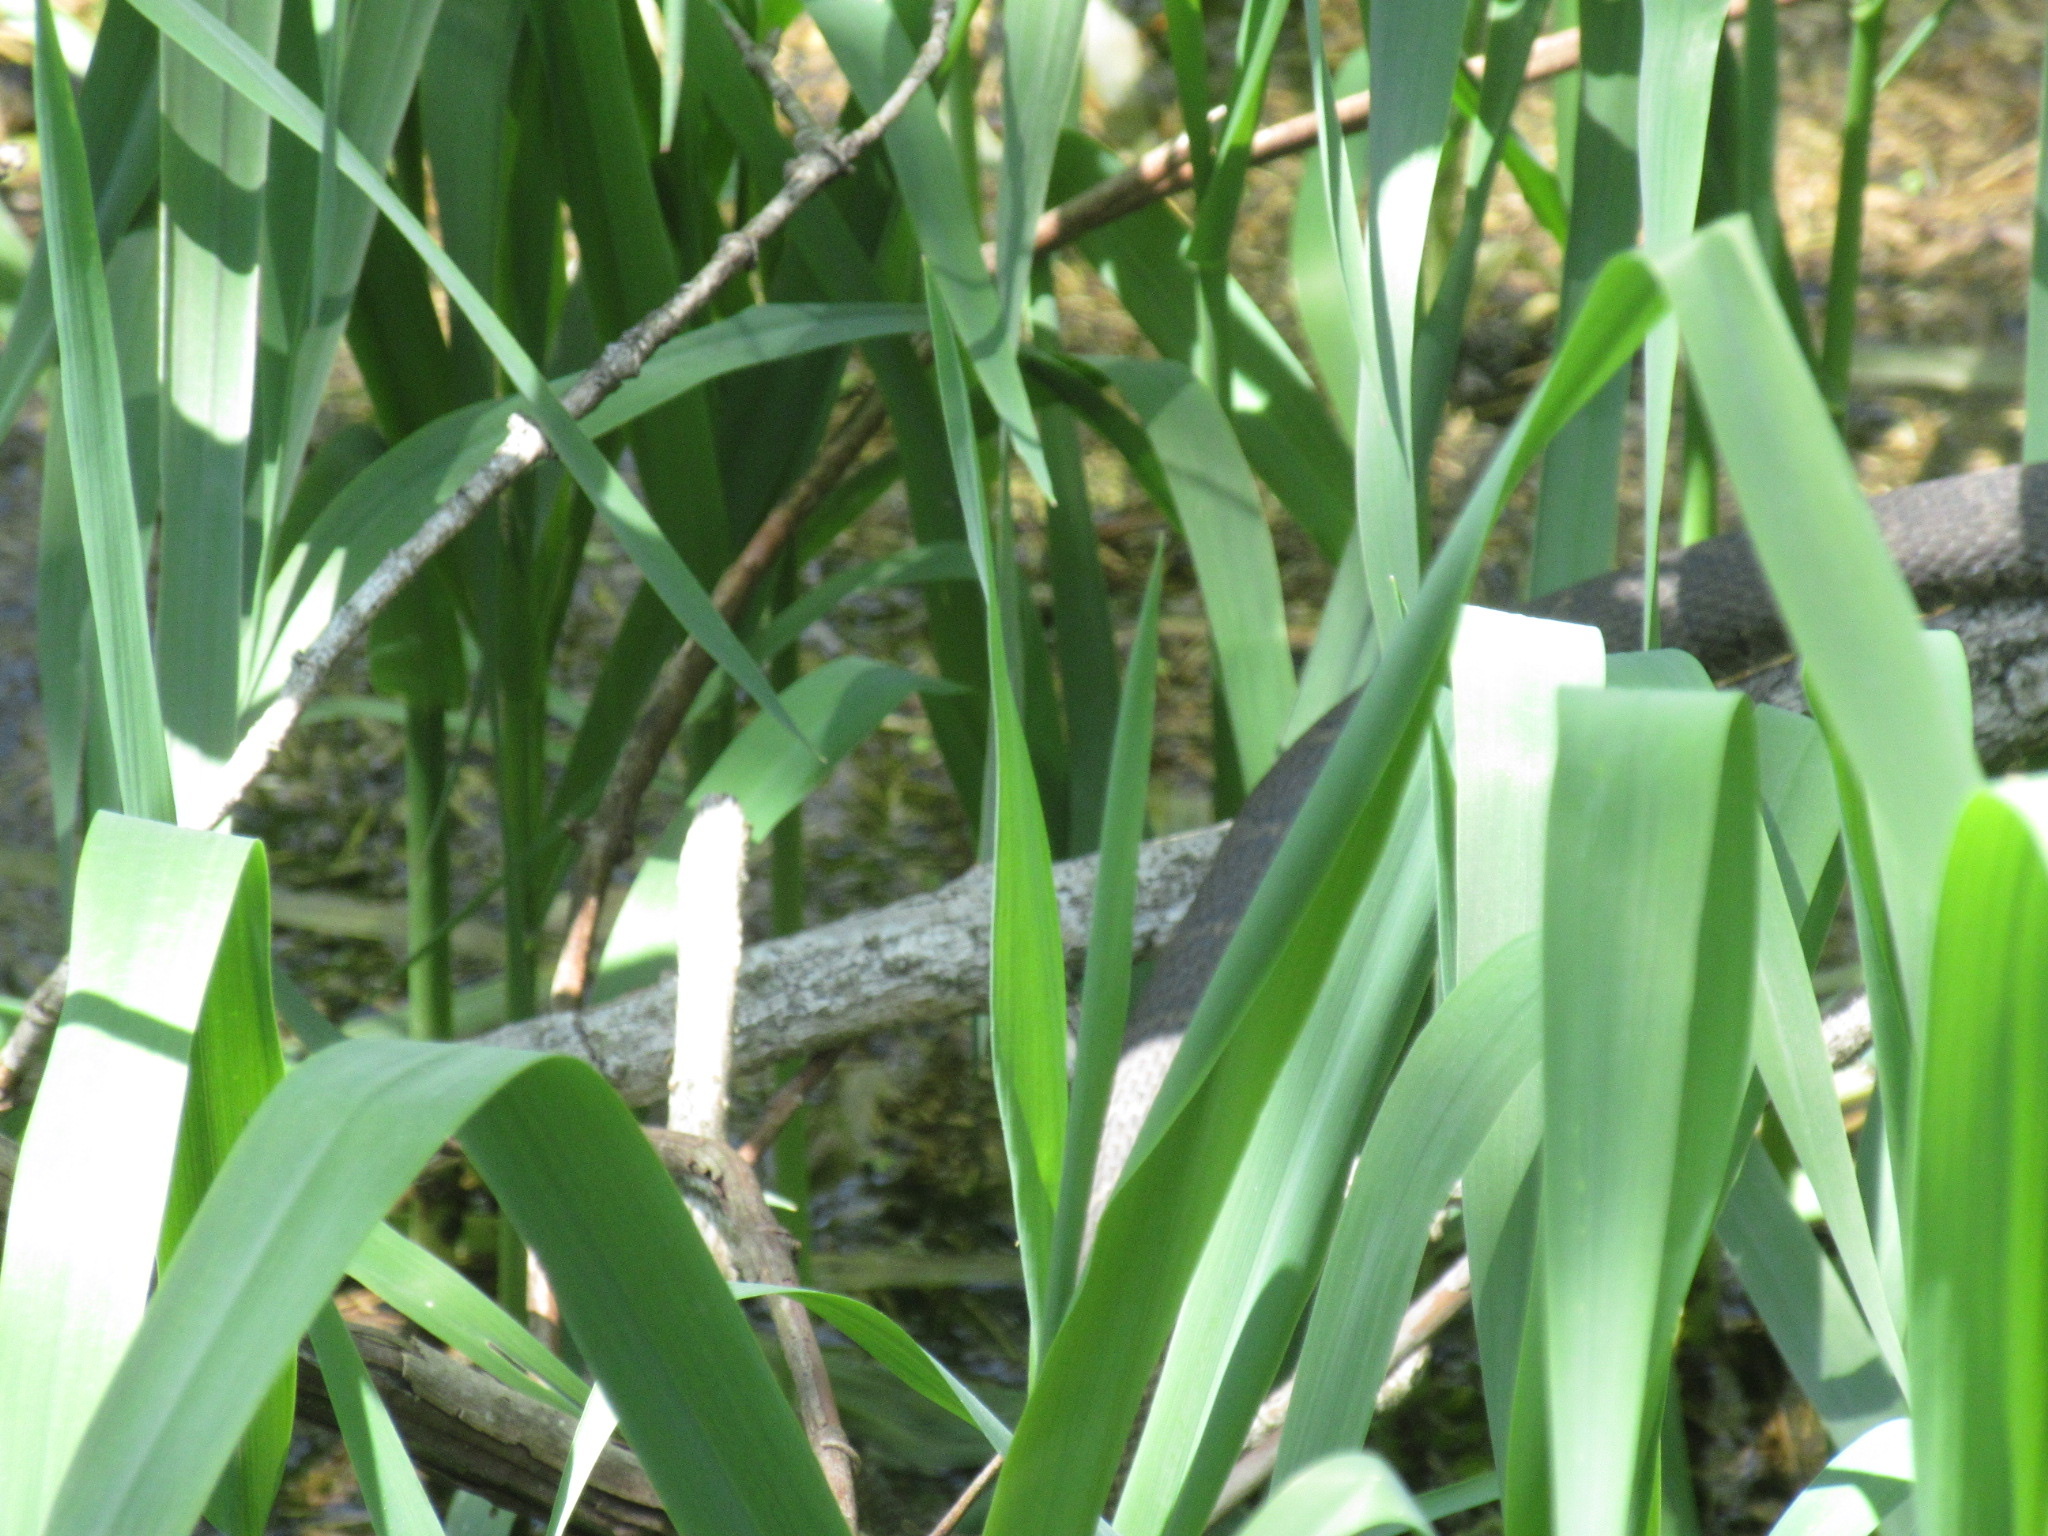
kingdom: Animalia
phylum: Chordata
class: Squamata
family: Colubridae
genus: Nerodia
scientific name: Nerodia sipedon
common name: Northern water snake
